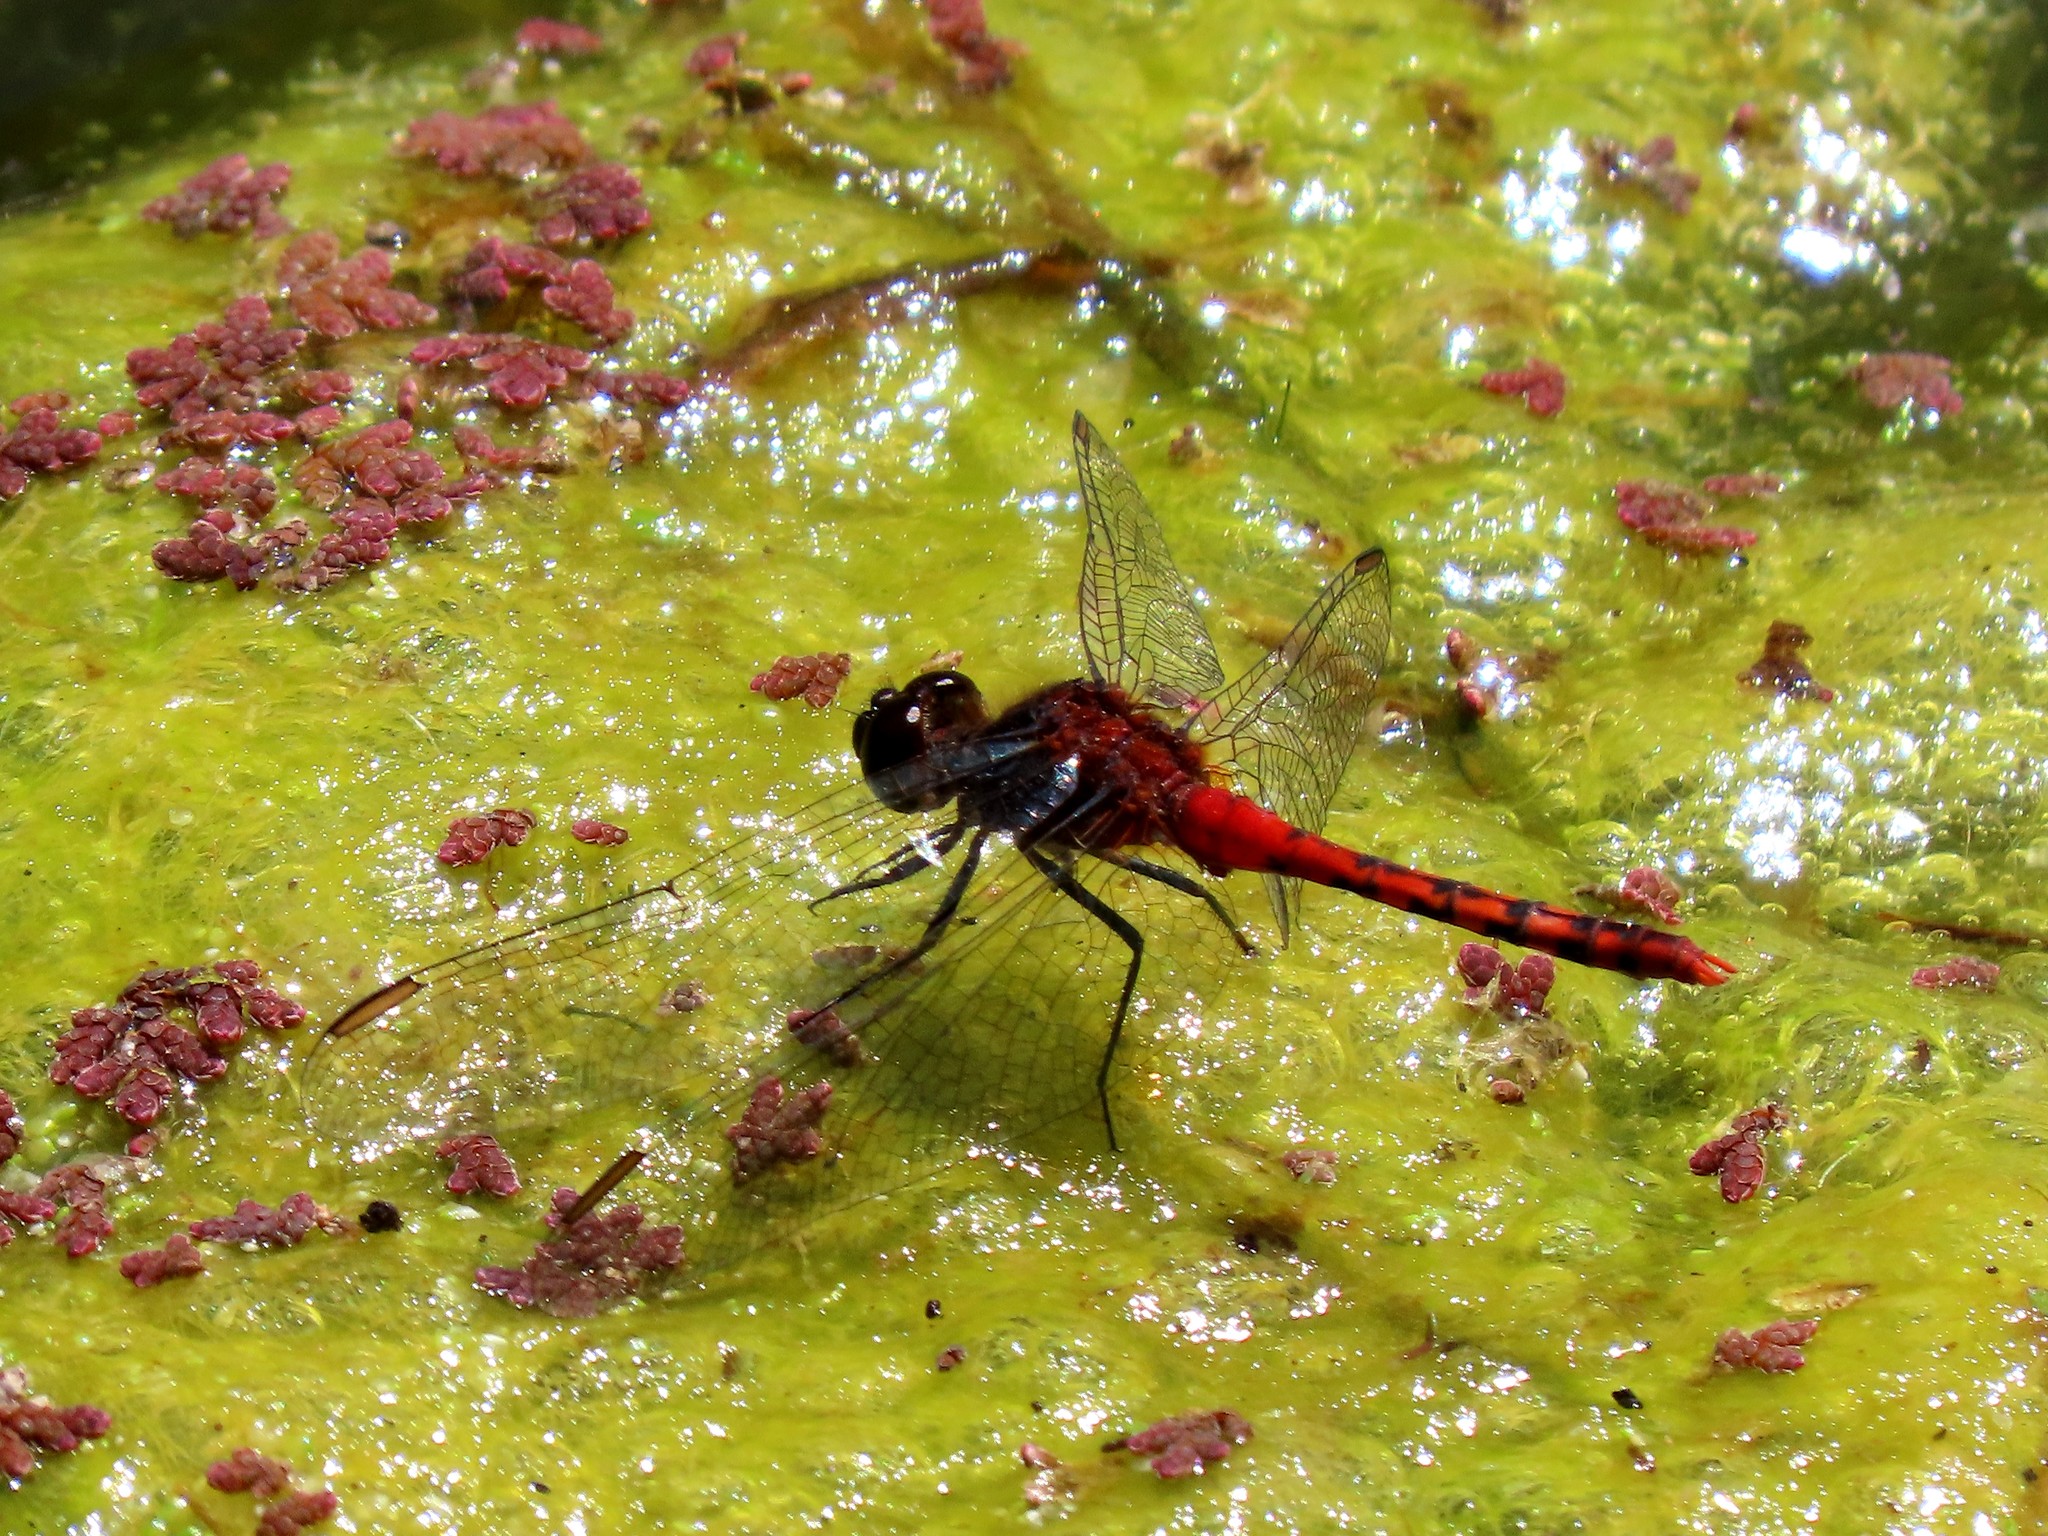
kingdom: Animalia
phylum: Arthropoda
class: Insecta
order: Odonata
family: Libellulidae
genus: Diplacodes
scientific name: Diplacodes melanopsis
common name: Black-faced percher
